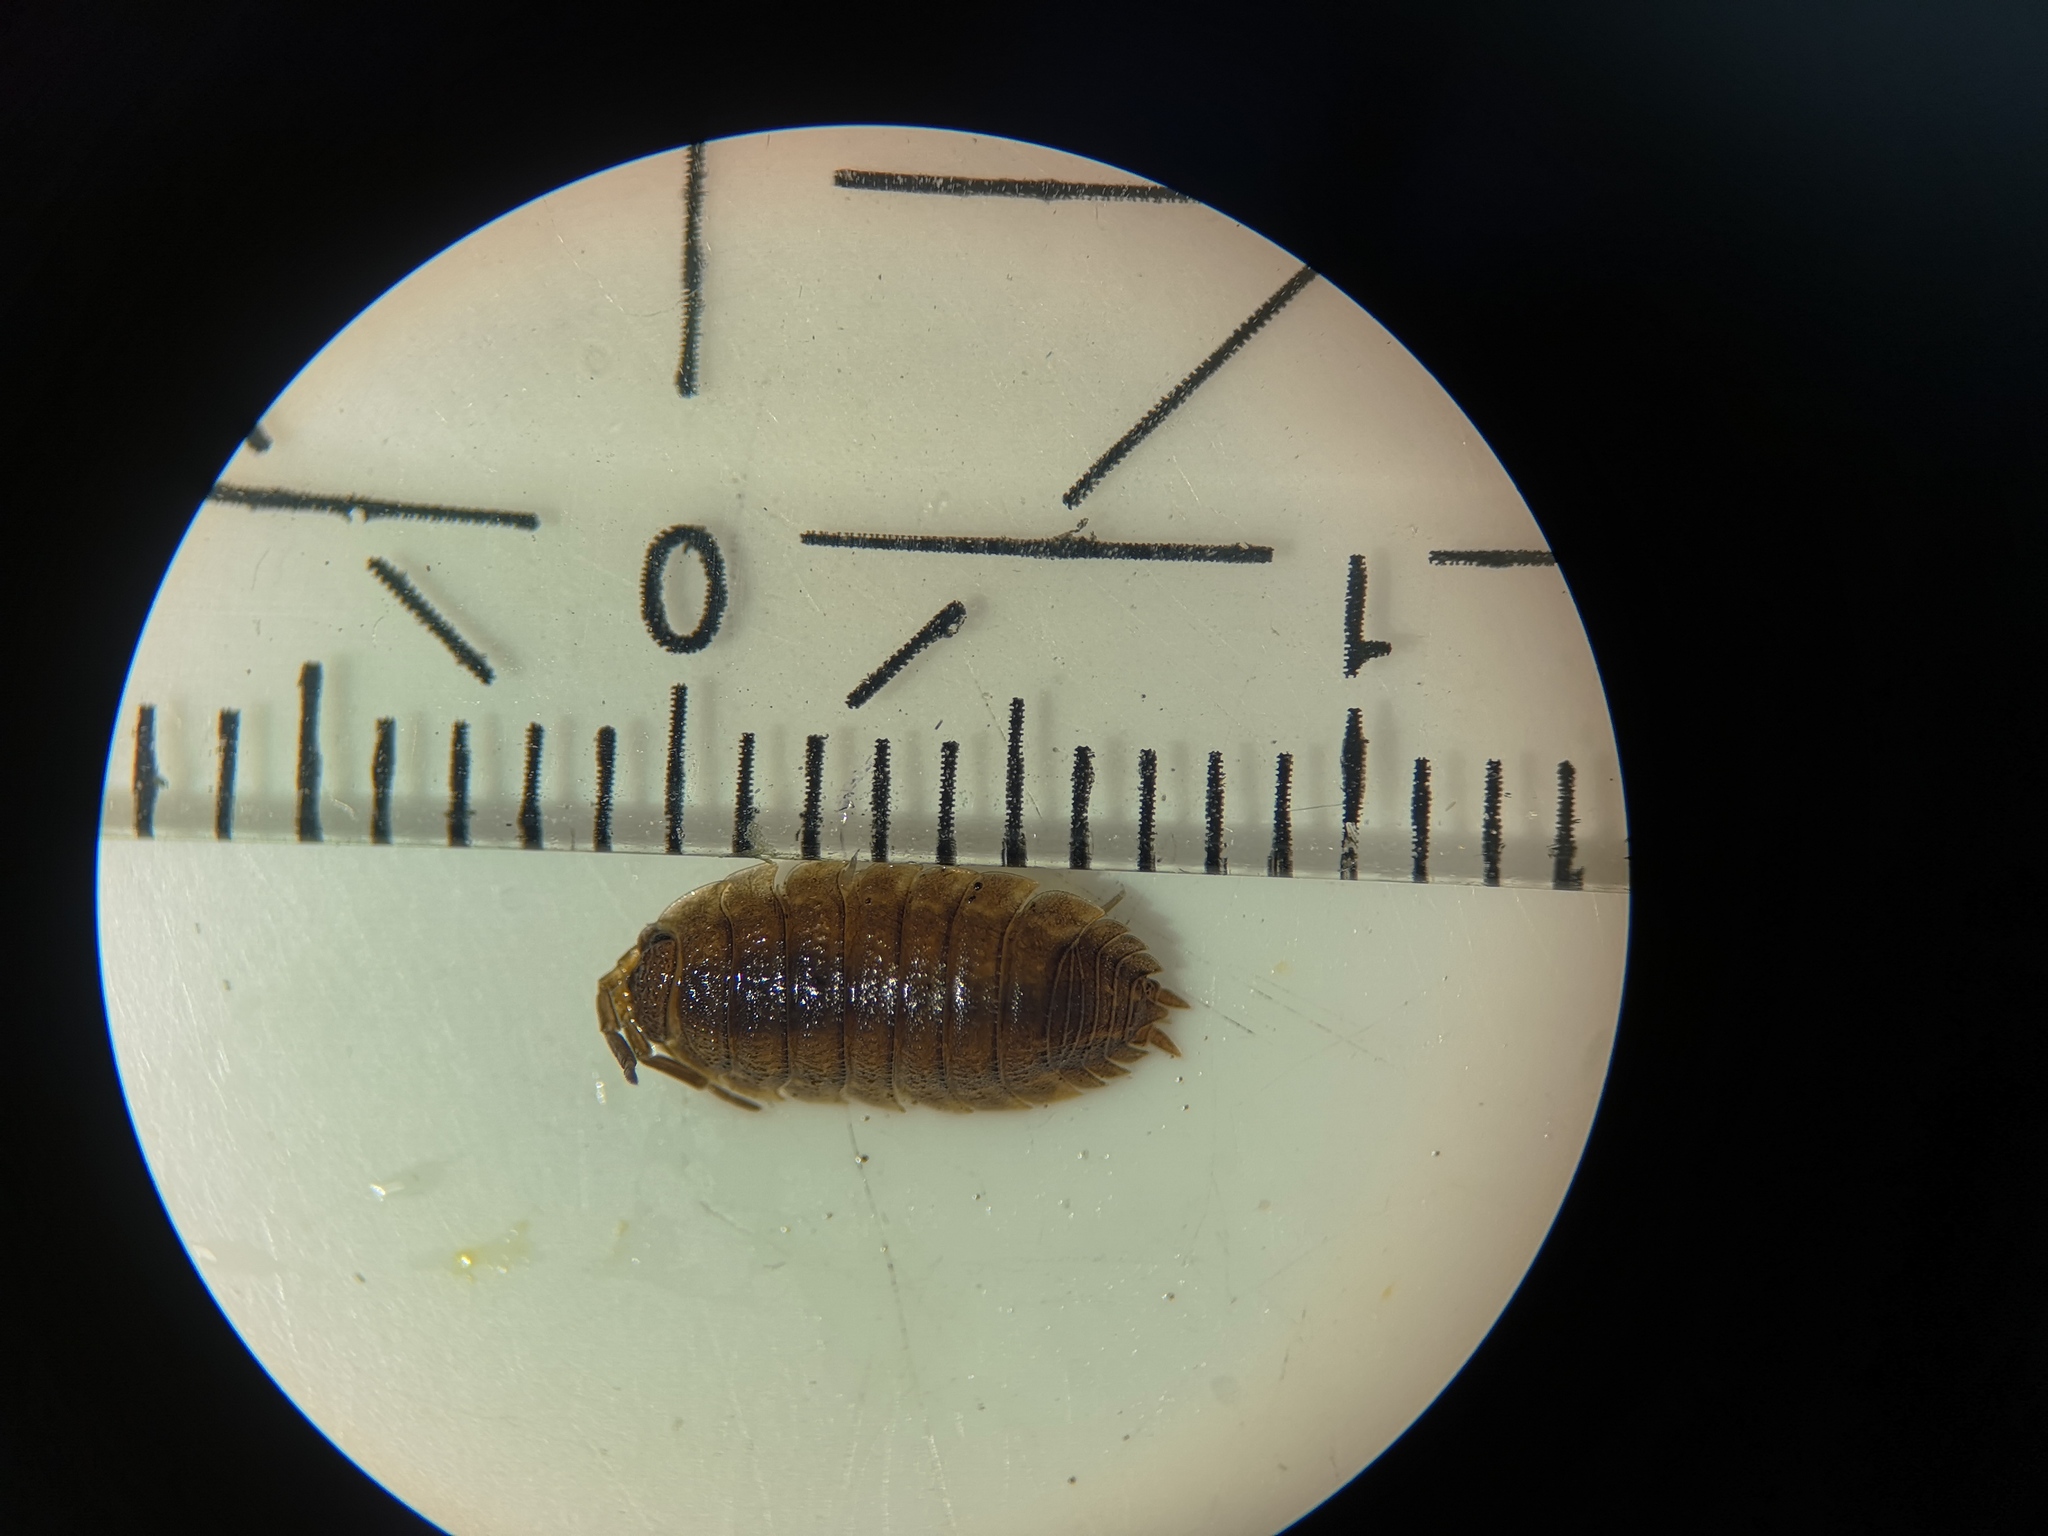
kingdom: Animalia
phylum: Arthropoda
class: Malacostraca
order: Isopoda
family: Porcellionidae
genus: Porcellio
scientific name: Porcellio scaber
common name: Common rough woodlouse
